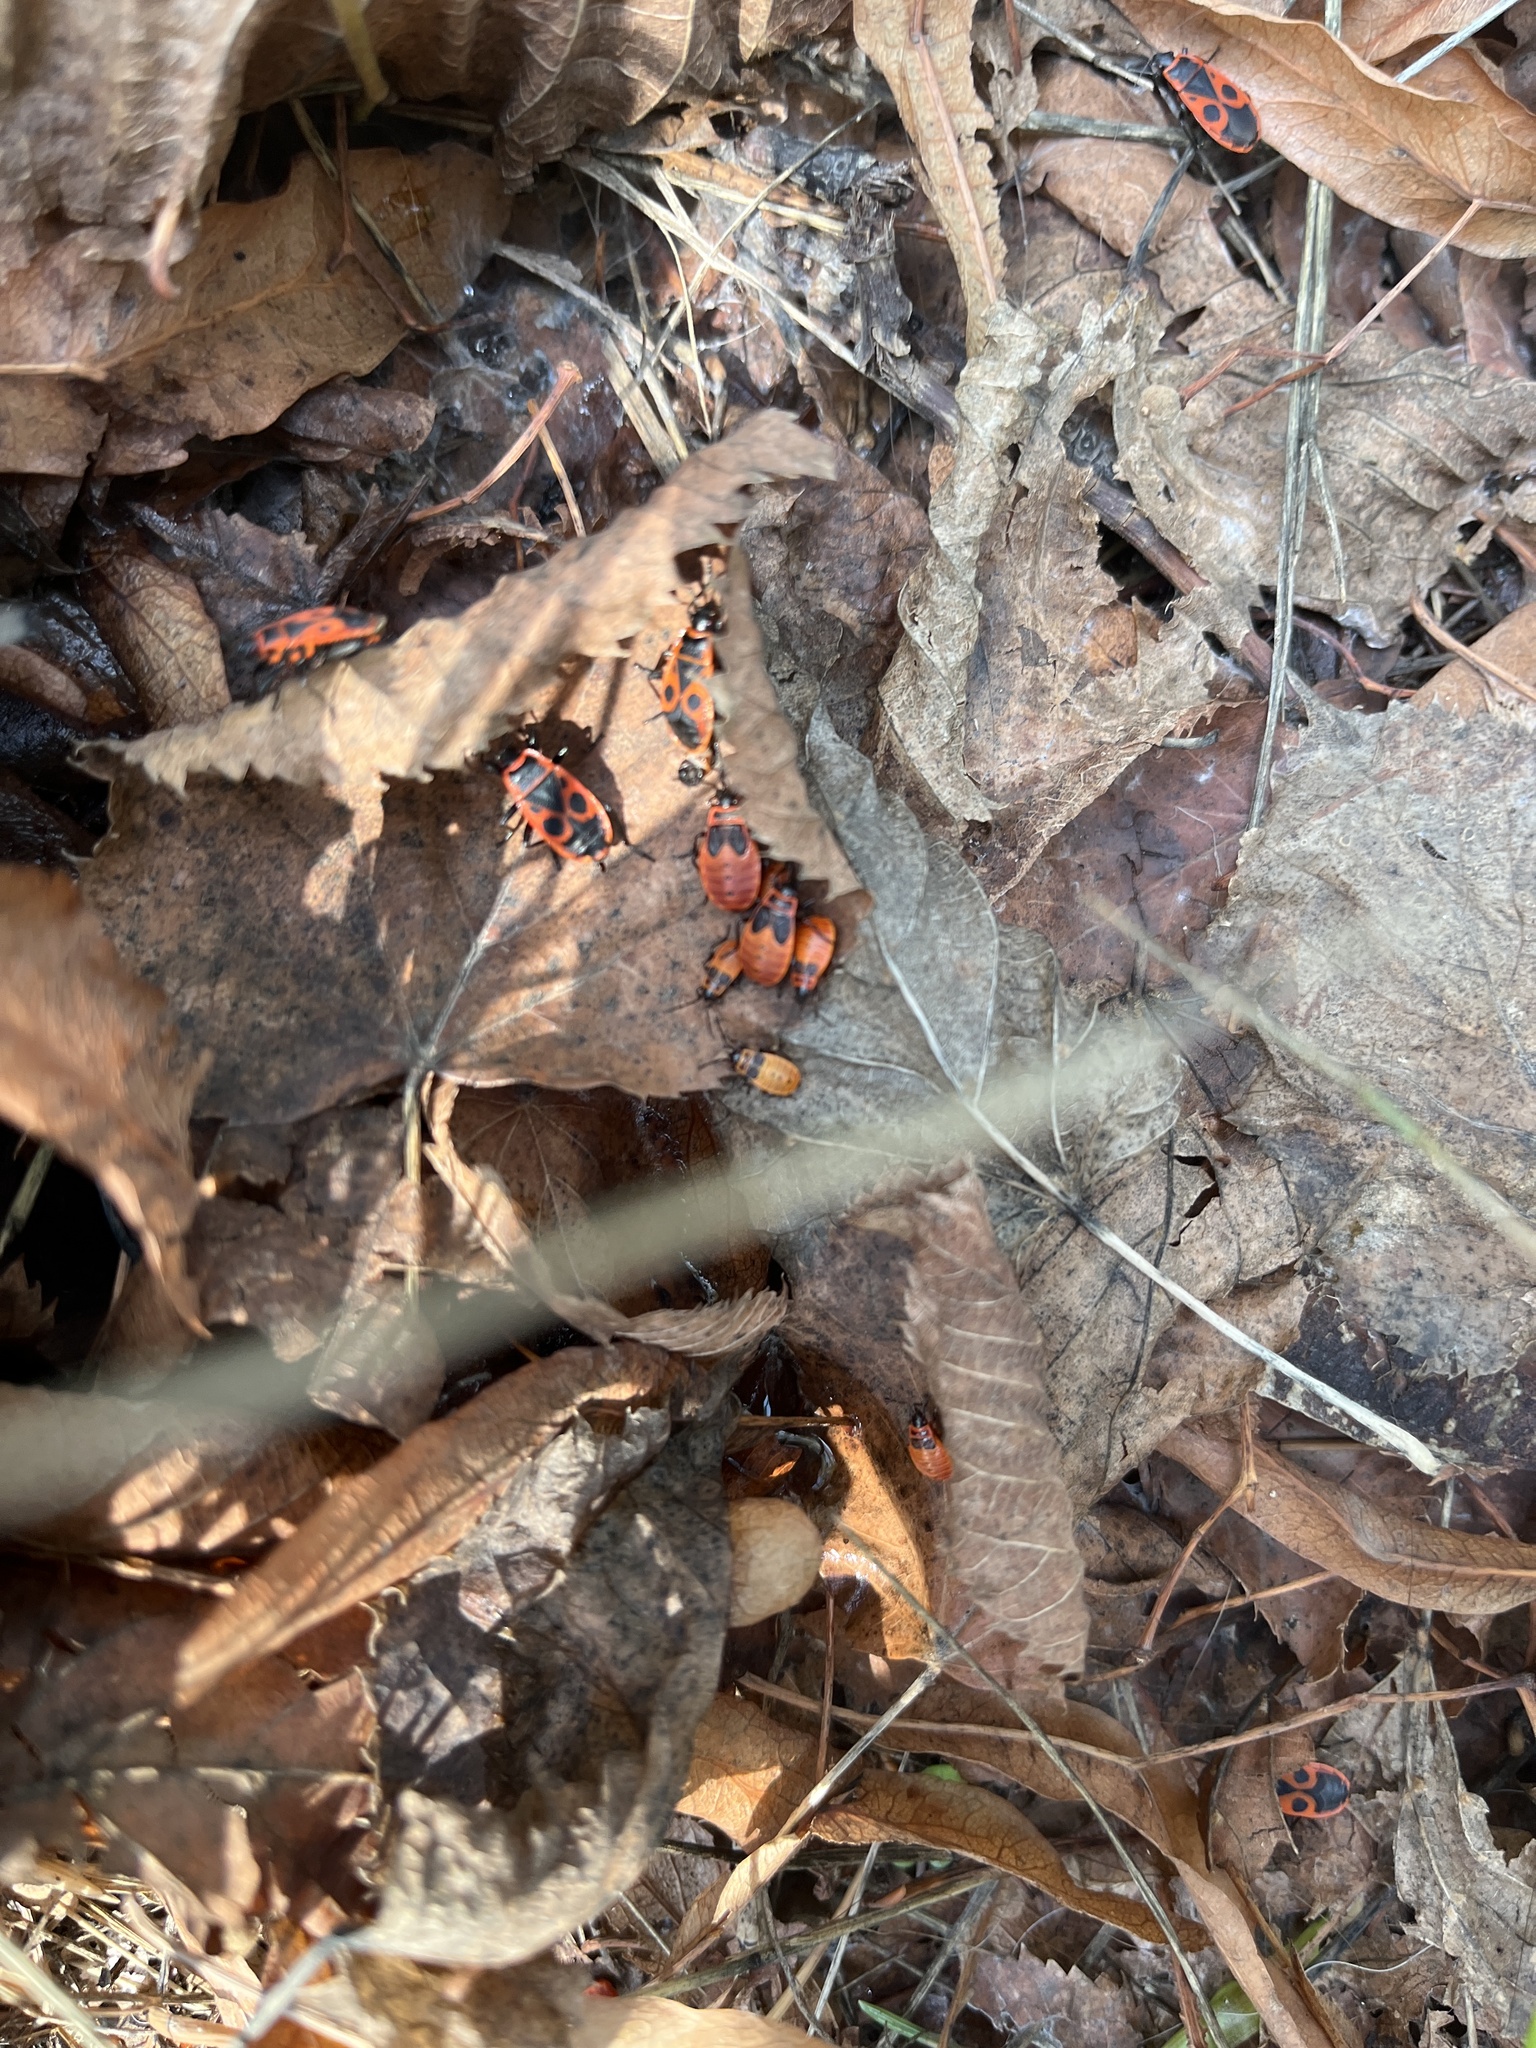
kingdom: Animalia
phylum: Arthropoda
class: Insecta
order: Hemiptera
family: Pyrrhocoridae
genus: Pyrrhocoris
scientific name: Pyrrhocoris apterus
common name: Firebug
